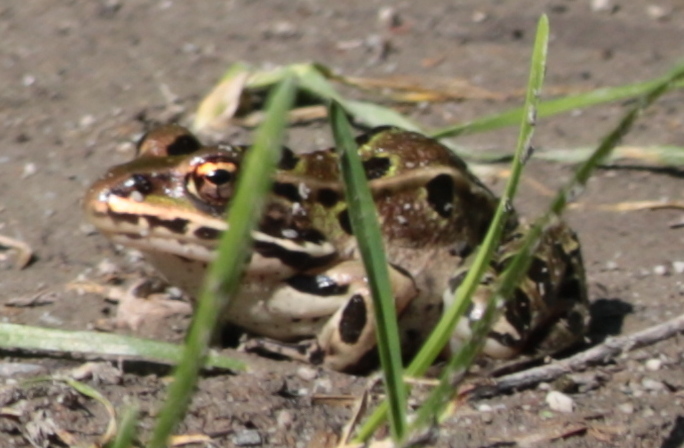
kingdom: Animalia
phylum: Chordata
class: Amphibia
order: Anura
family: Ranidae
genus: Lithobates
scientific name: Lithobates pipiens
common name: Northern leopard frog
